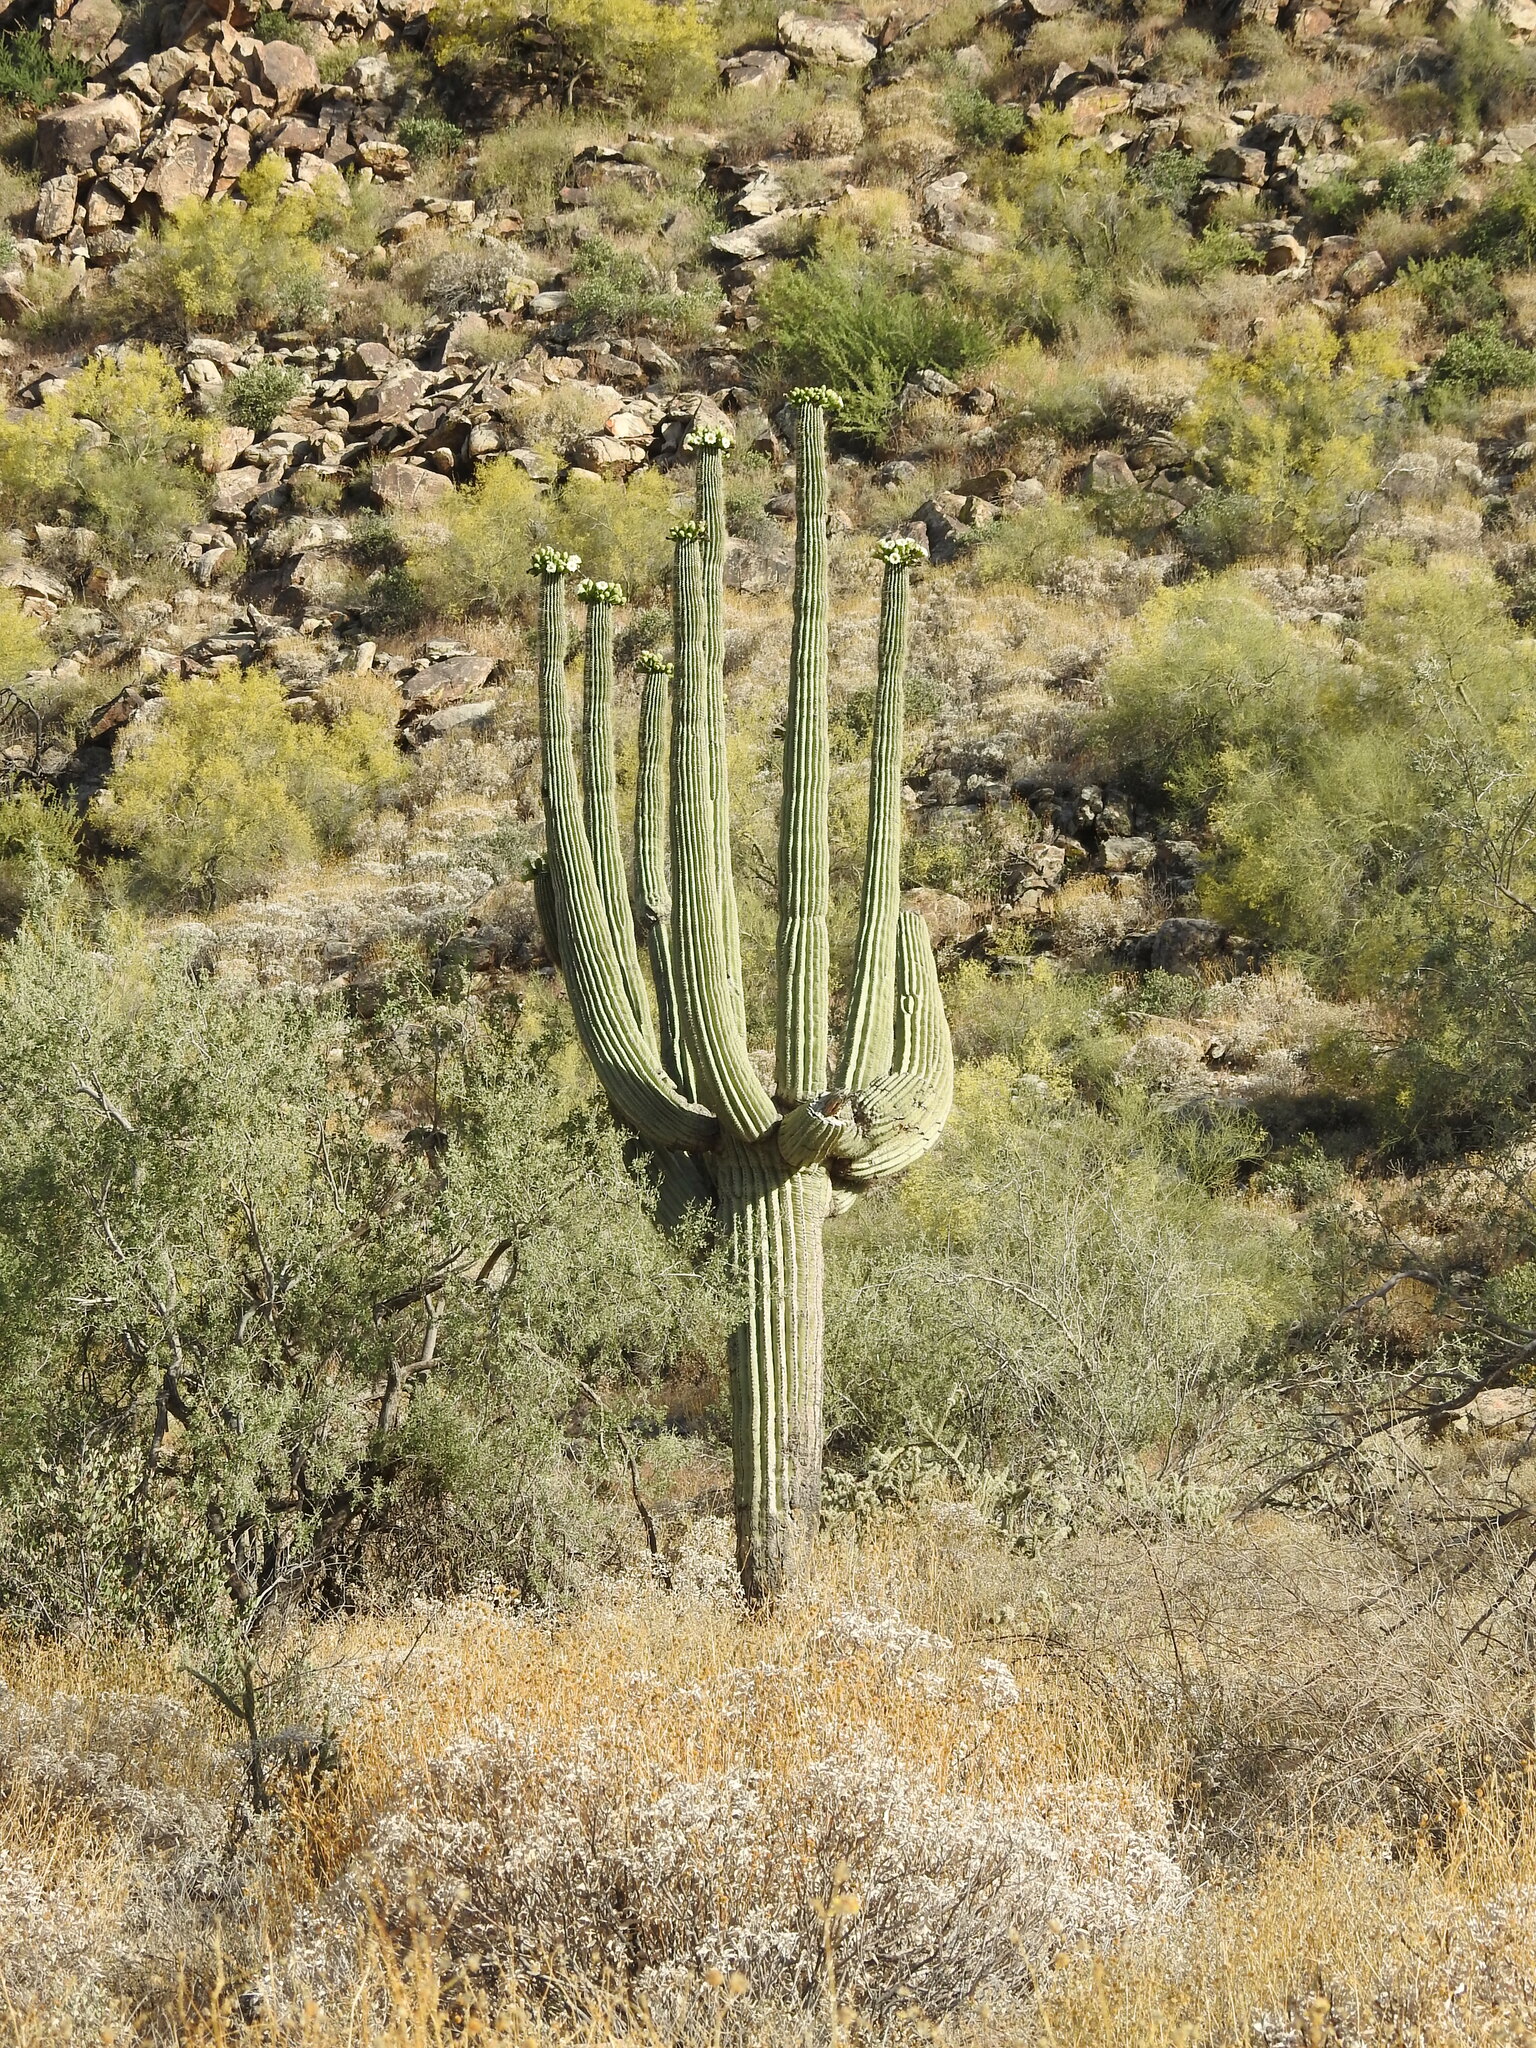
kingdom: Plantae
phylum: Tracheophyta
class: Magnoliopsida
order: Caryophyllales
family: Cactaceae
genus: Carnegiea
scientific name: Carnegiea gigantea
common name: Saguaro
